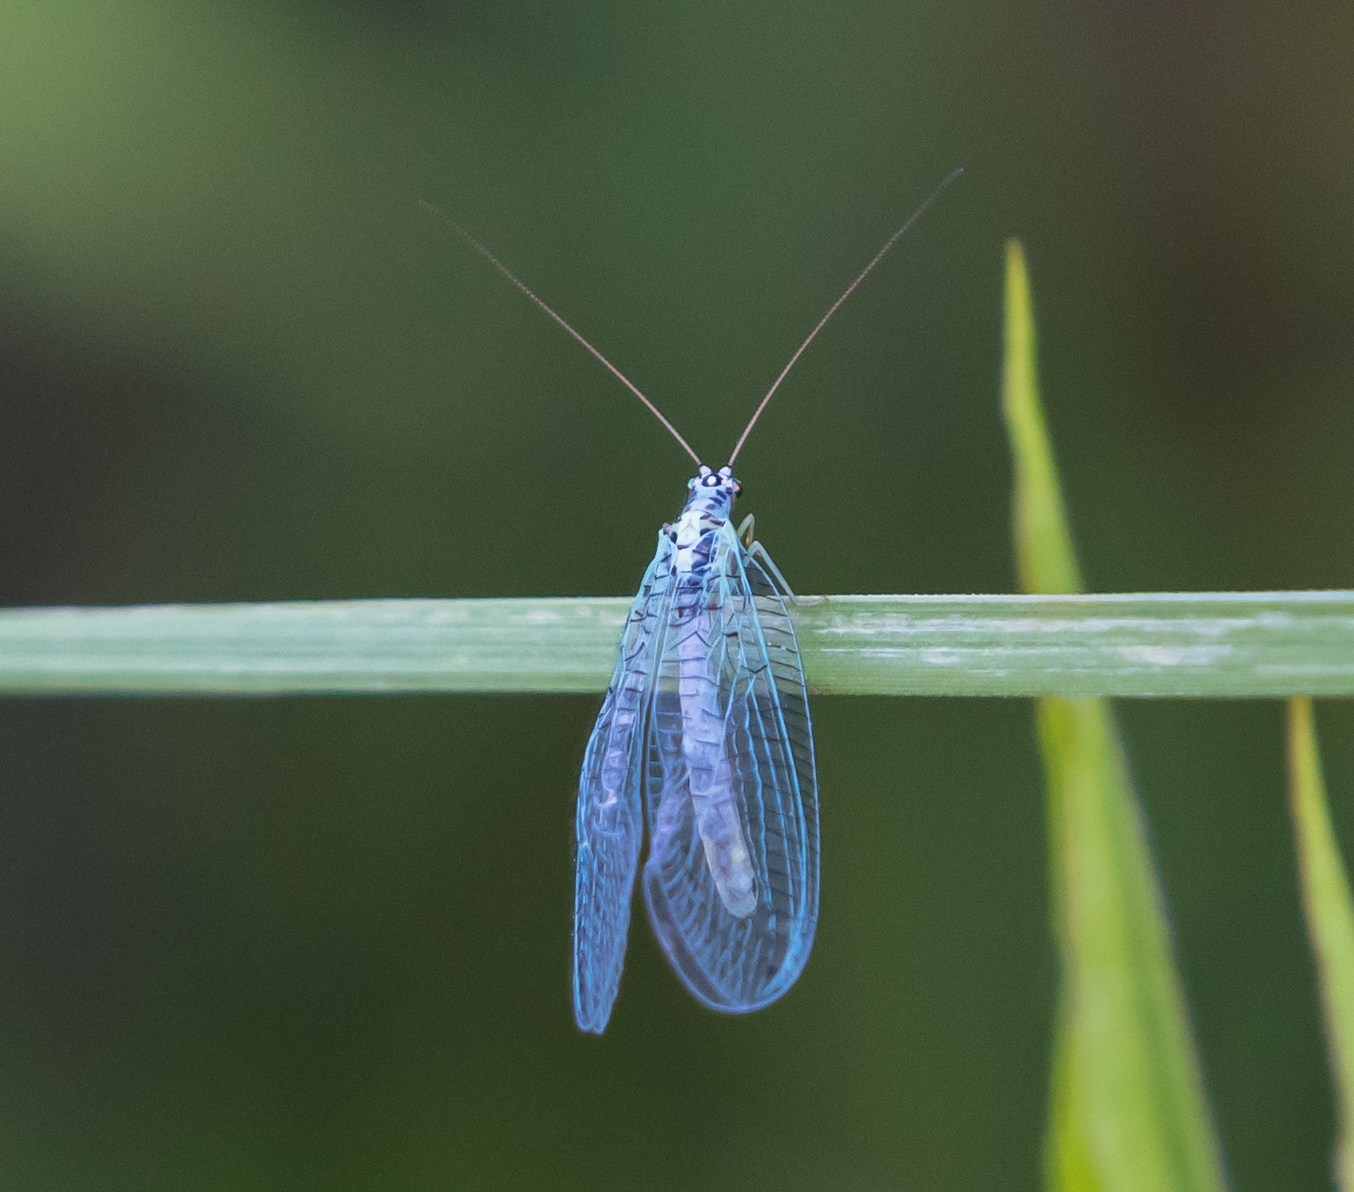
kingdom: Animalia
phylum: Arthropoda
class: Insecta
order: Neuroptera
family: Chrysopidae
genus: Chrysopa
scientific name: Chrysopa perla
